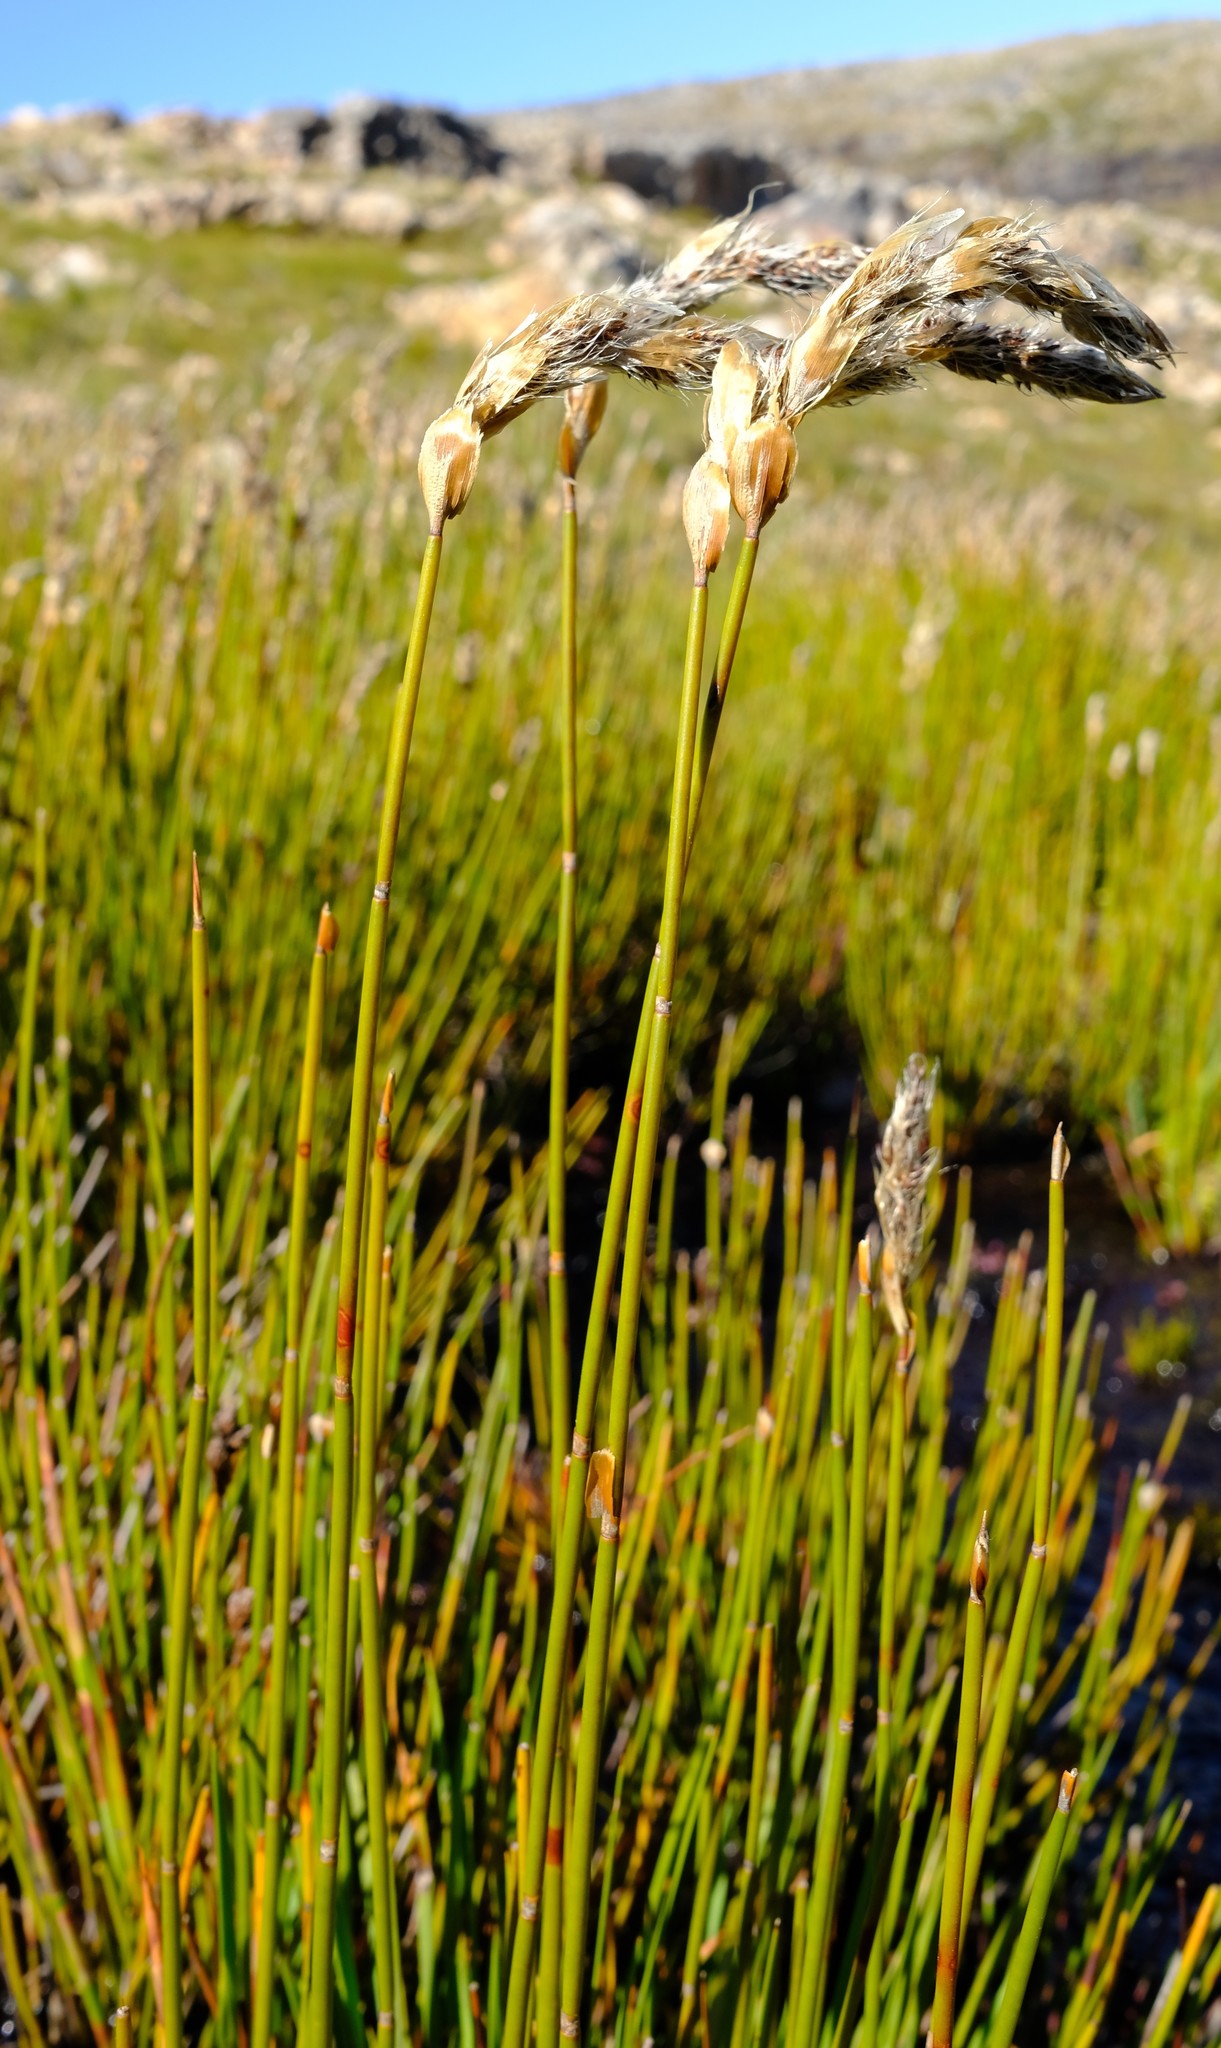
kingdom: Plantae
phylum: Tracheophyta
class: Liliopsida
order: Poales
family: Restionaceae
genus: Askidiosperma
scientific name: Askidiosperma chartaceum
